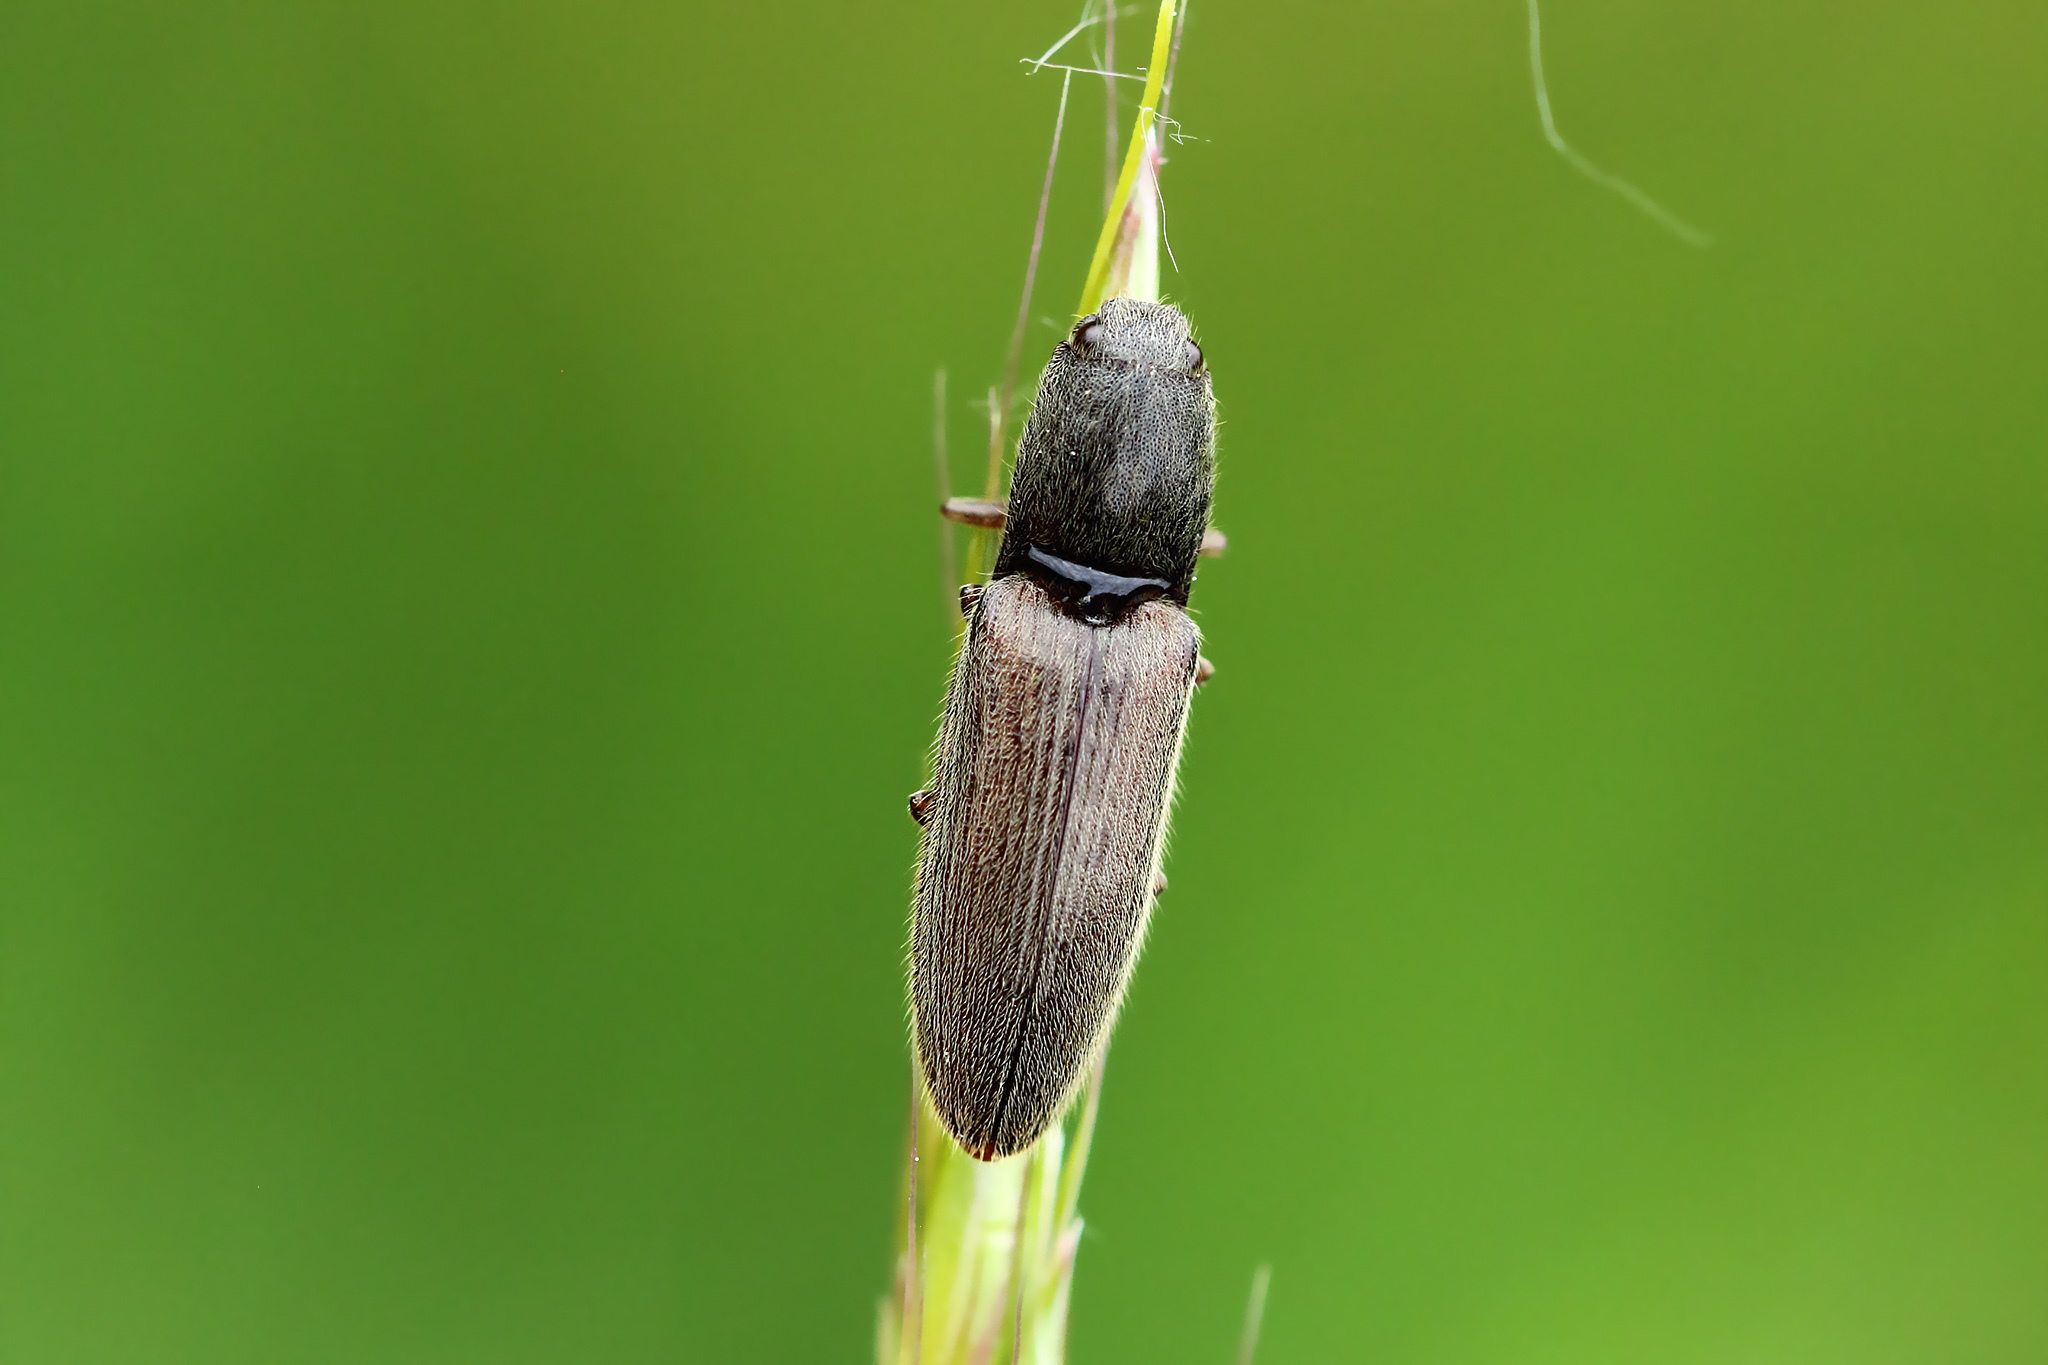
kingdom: Animalia
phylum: Arthropoda
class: Insecta
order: Coleoptera
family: Elateridae
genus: Athous
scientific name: Athous haemorrhoidalis
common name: Red-brown click beetle
